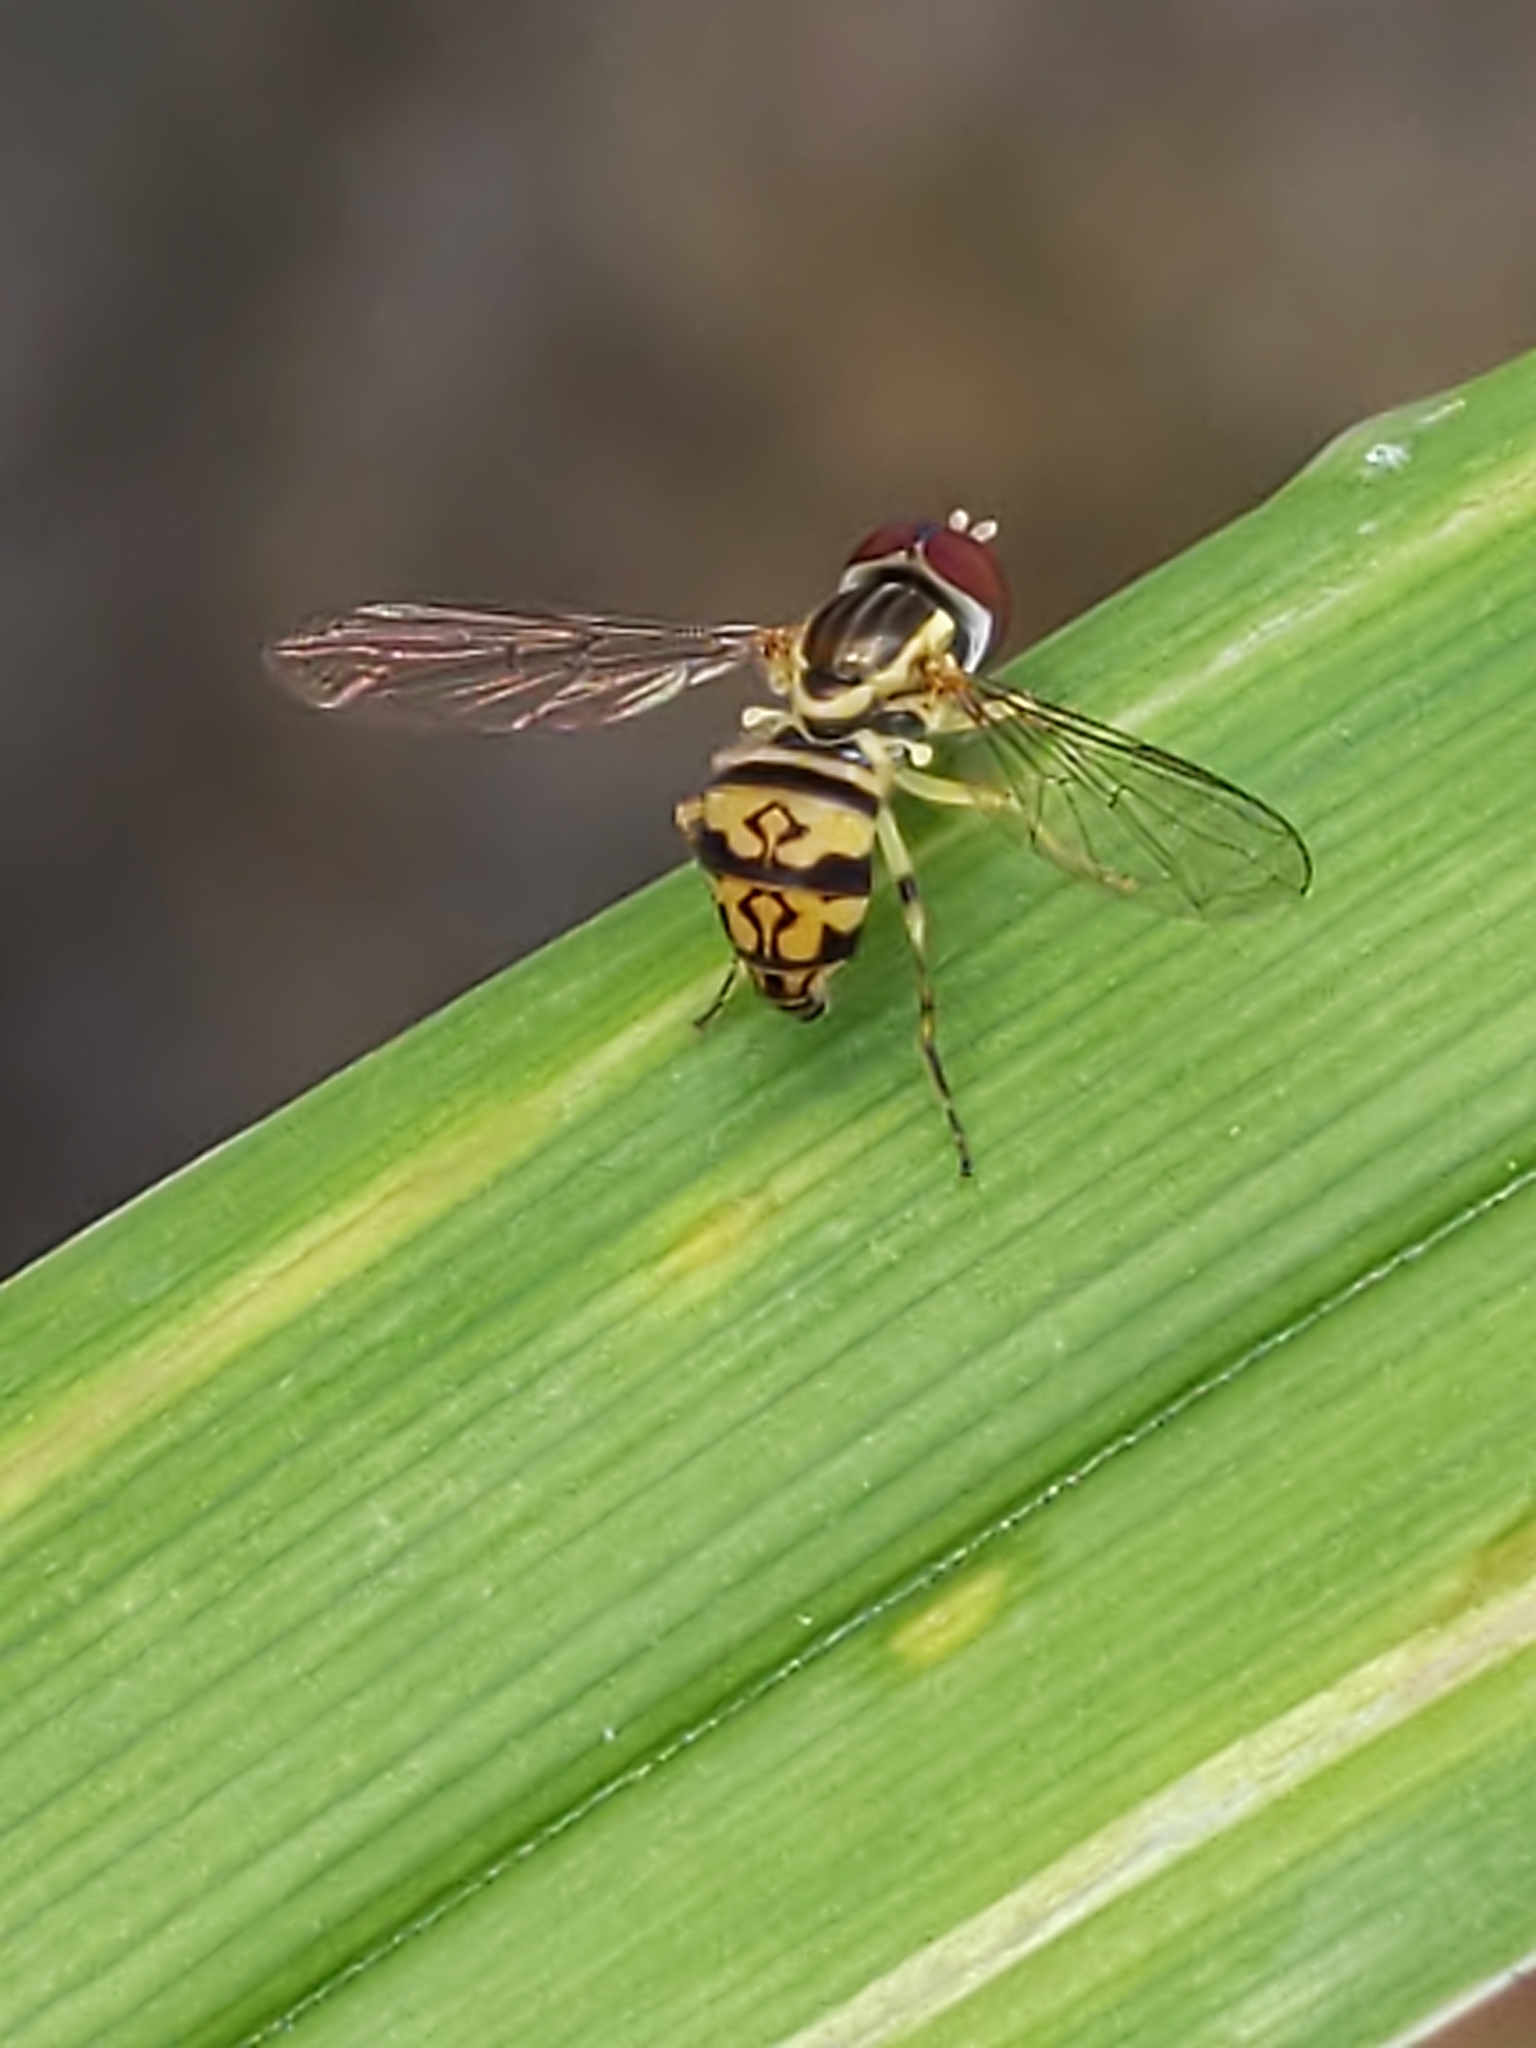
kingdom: Animalia
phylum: Arthropoda
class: Insecta
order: Diptera
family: Syrphidae
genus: Toxomerus
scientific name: Toxomerus geminatus
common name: Eastern calligrapher
